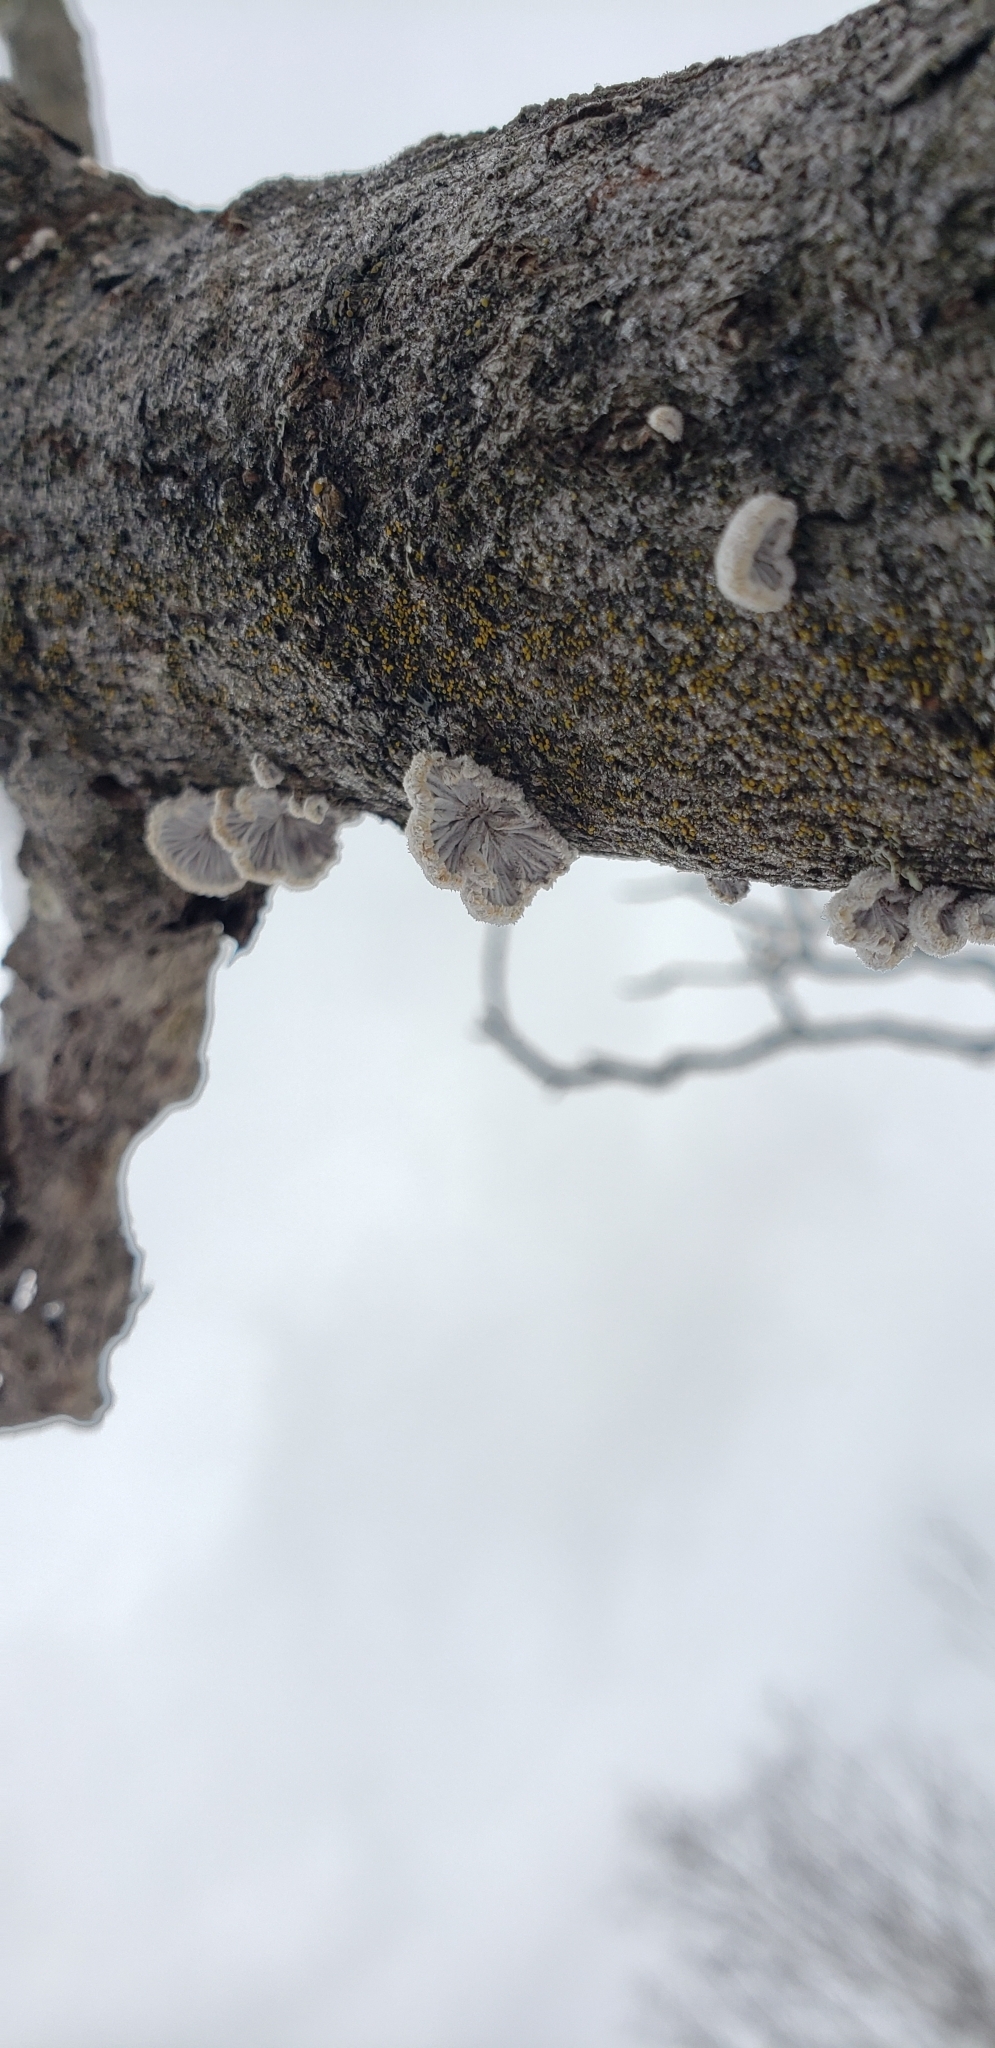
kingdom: Fungi
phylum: Basidiomycota
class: Agaricomycetes
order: Agaricales
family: Schizophyllaceae
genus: Schizophyllum
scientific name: Schizophyllum commune
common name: Common porecrust
